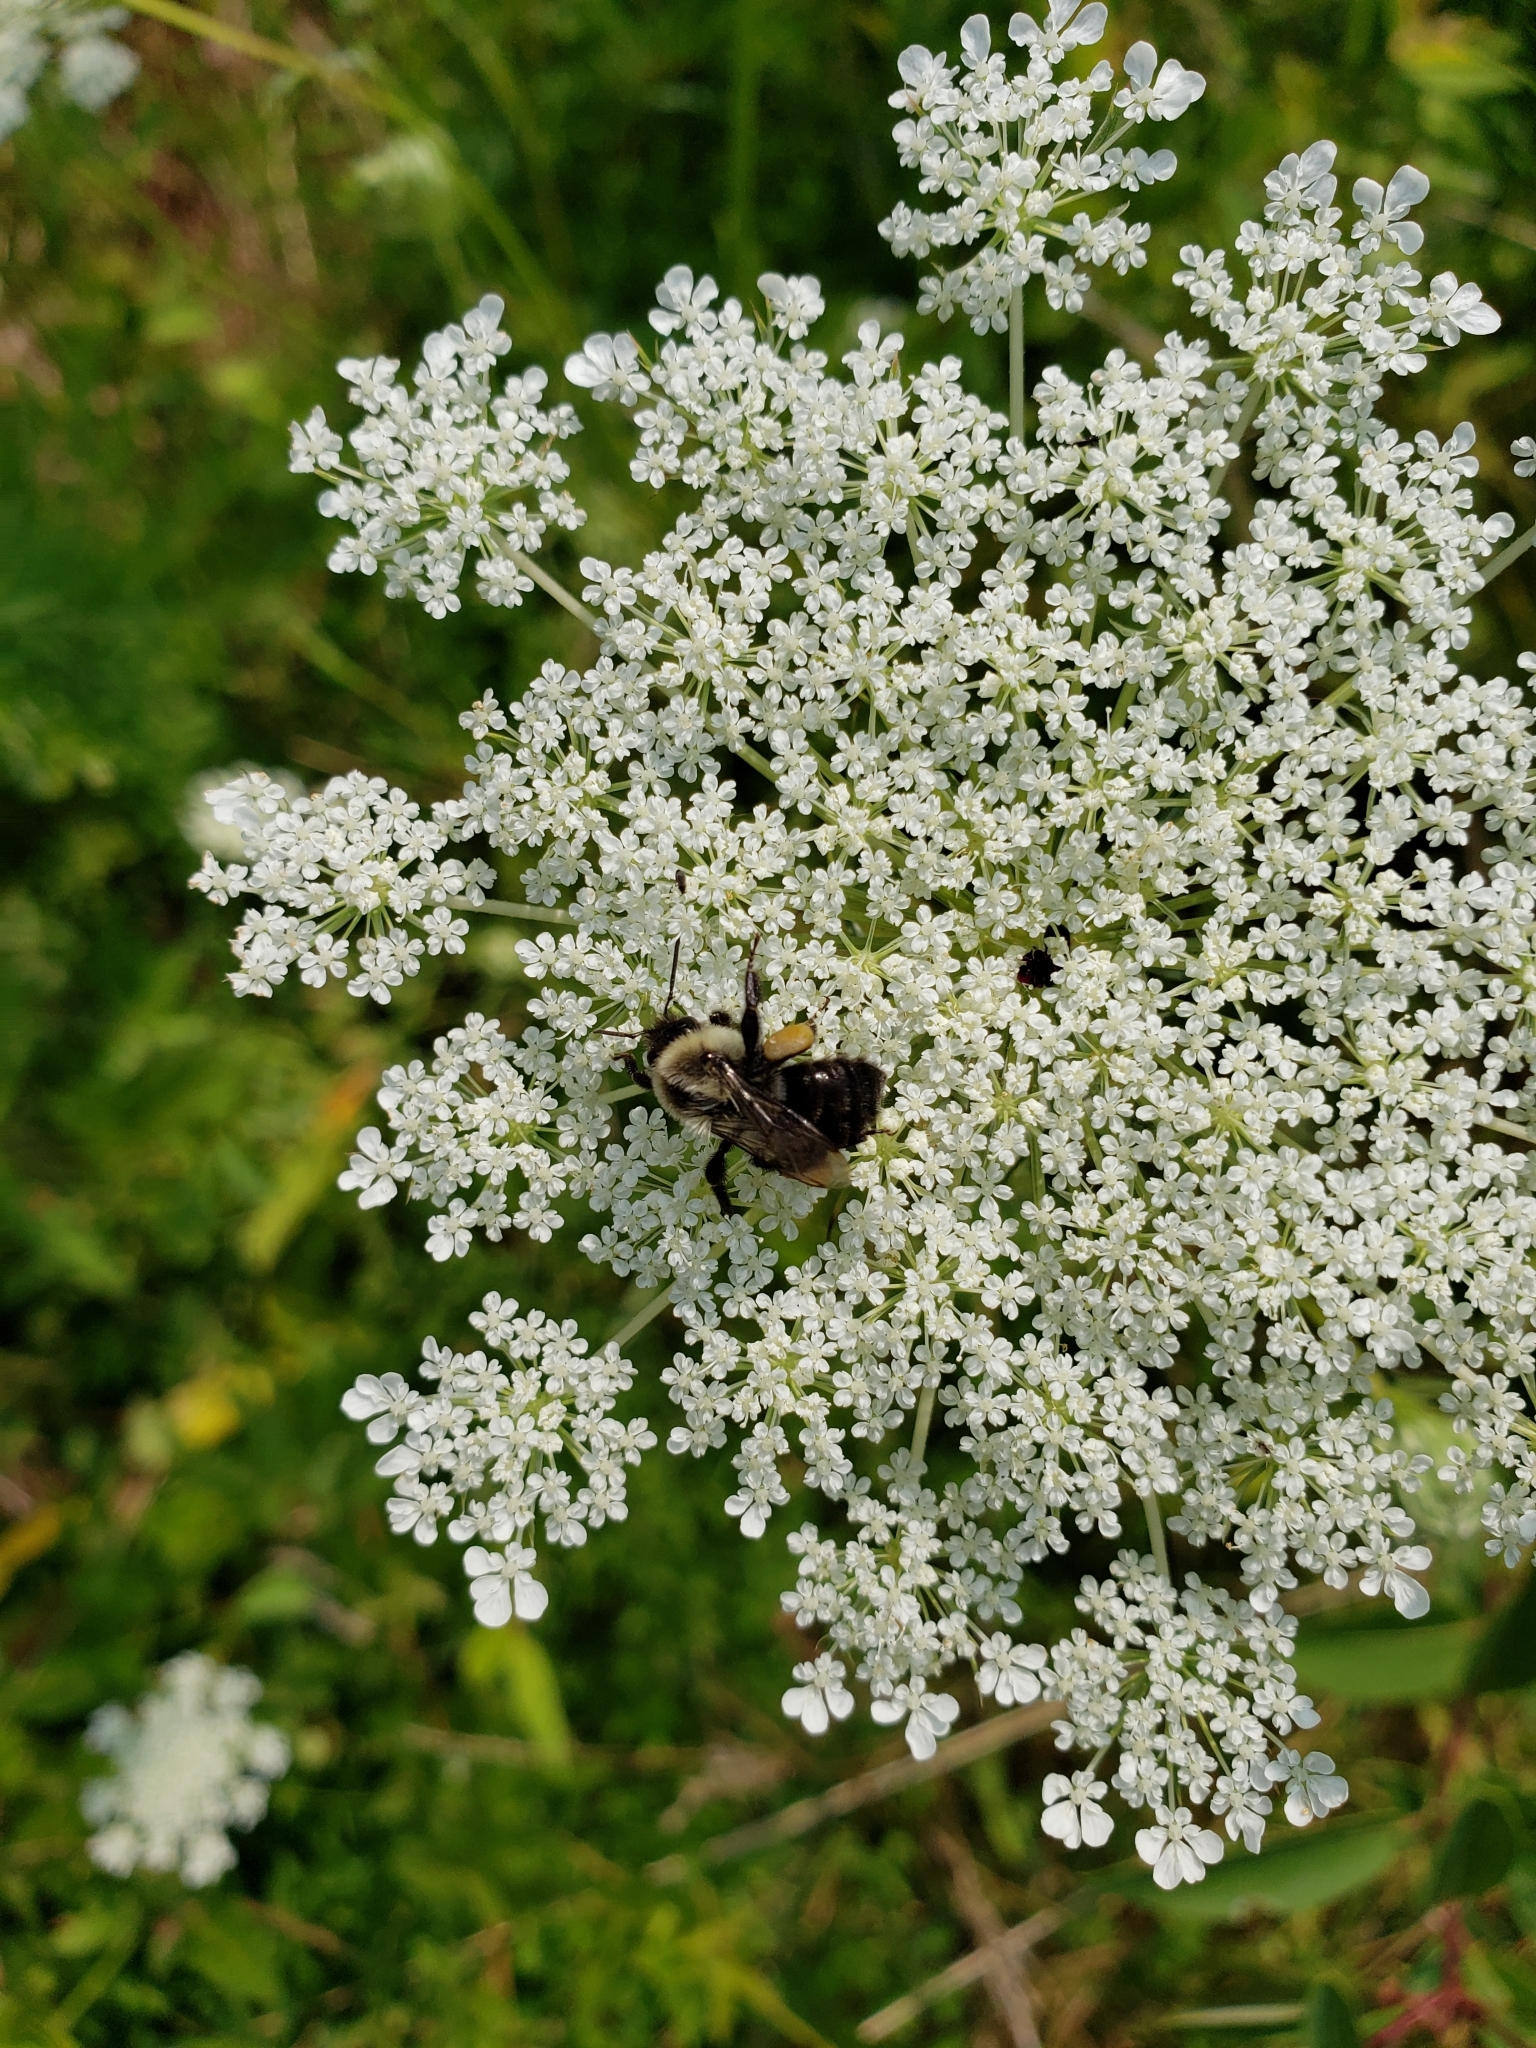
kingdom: Animalia
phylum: Arthropoda
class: Insecta
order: Hymenoptera
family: Apidae
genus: Bombus
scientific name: Bombus impatiens
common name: Common eastern bumble bee
